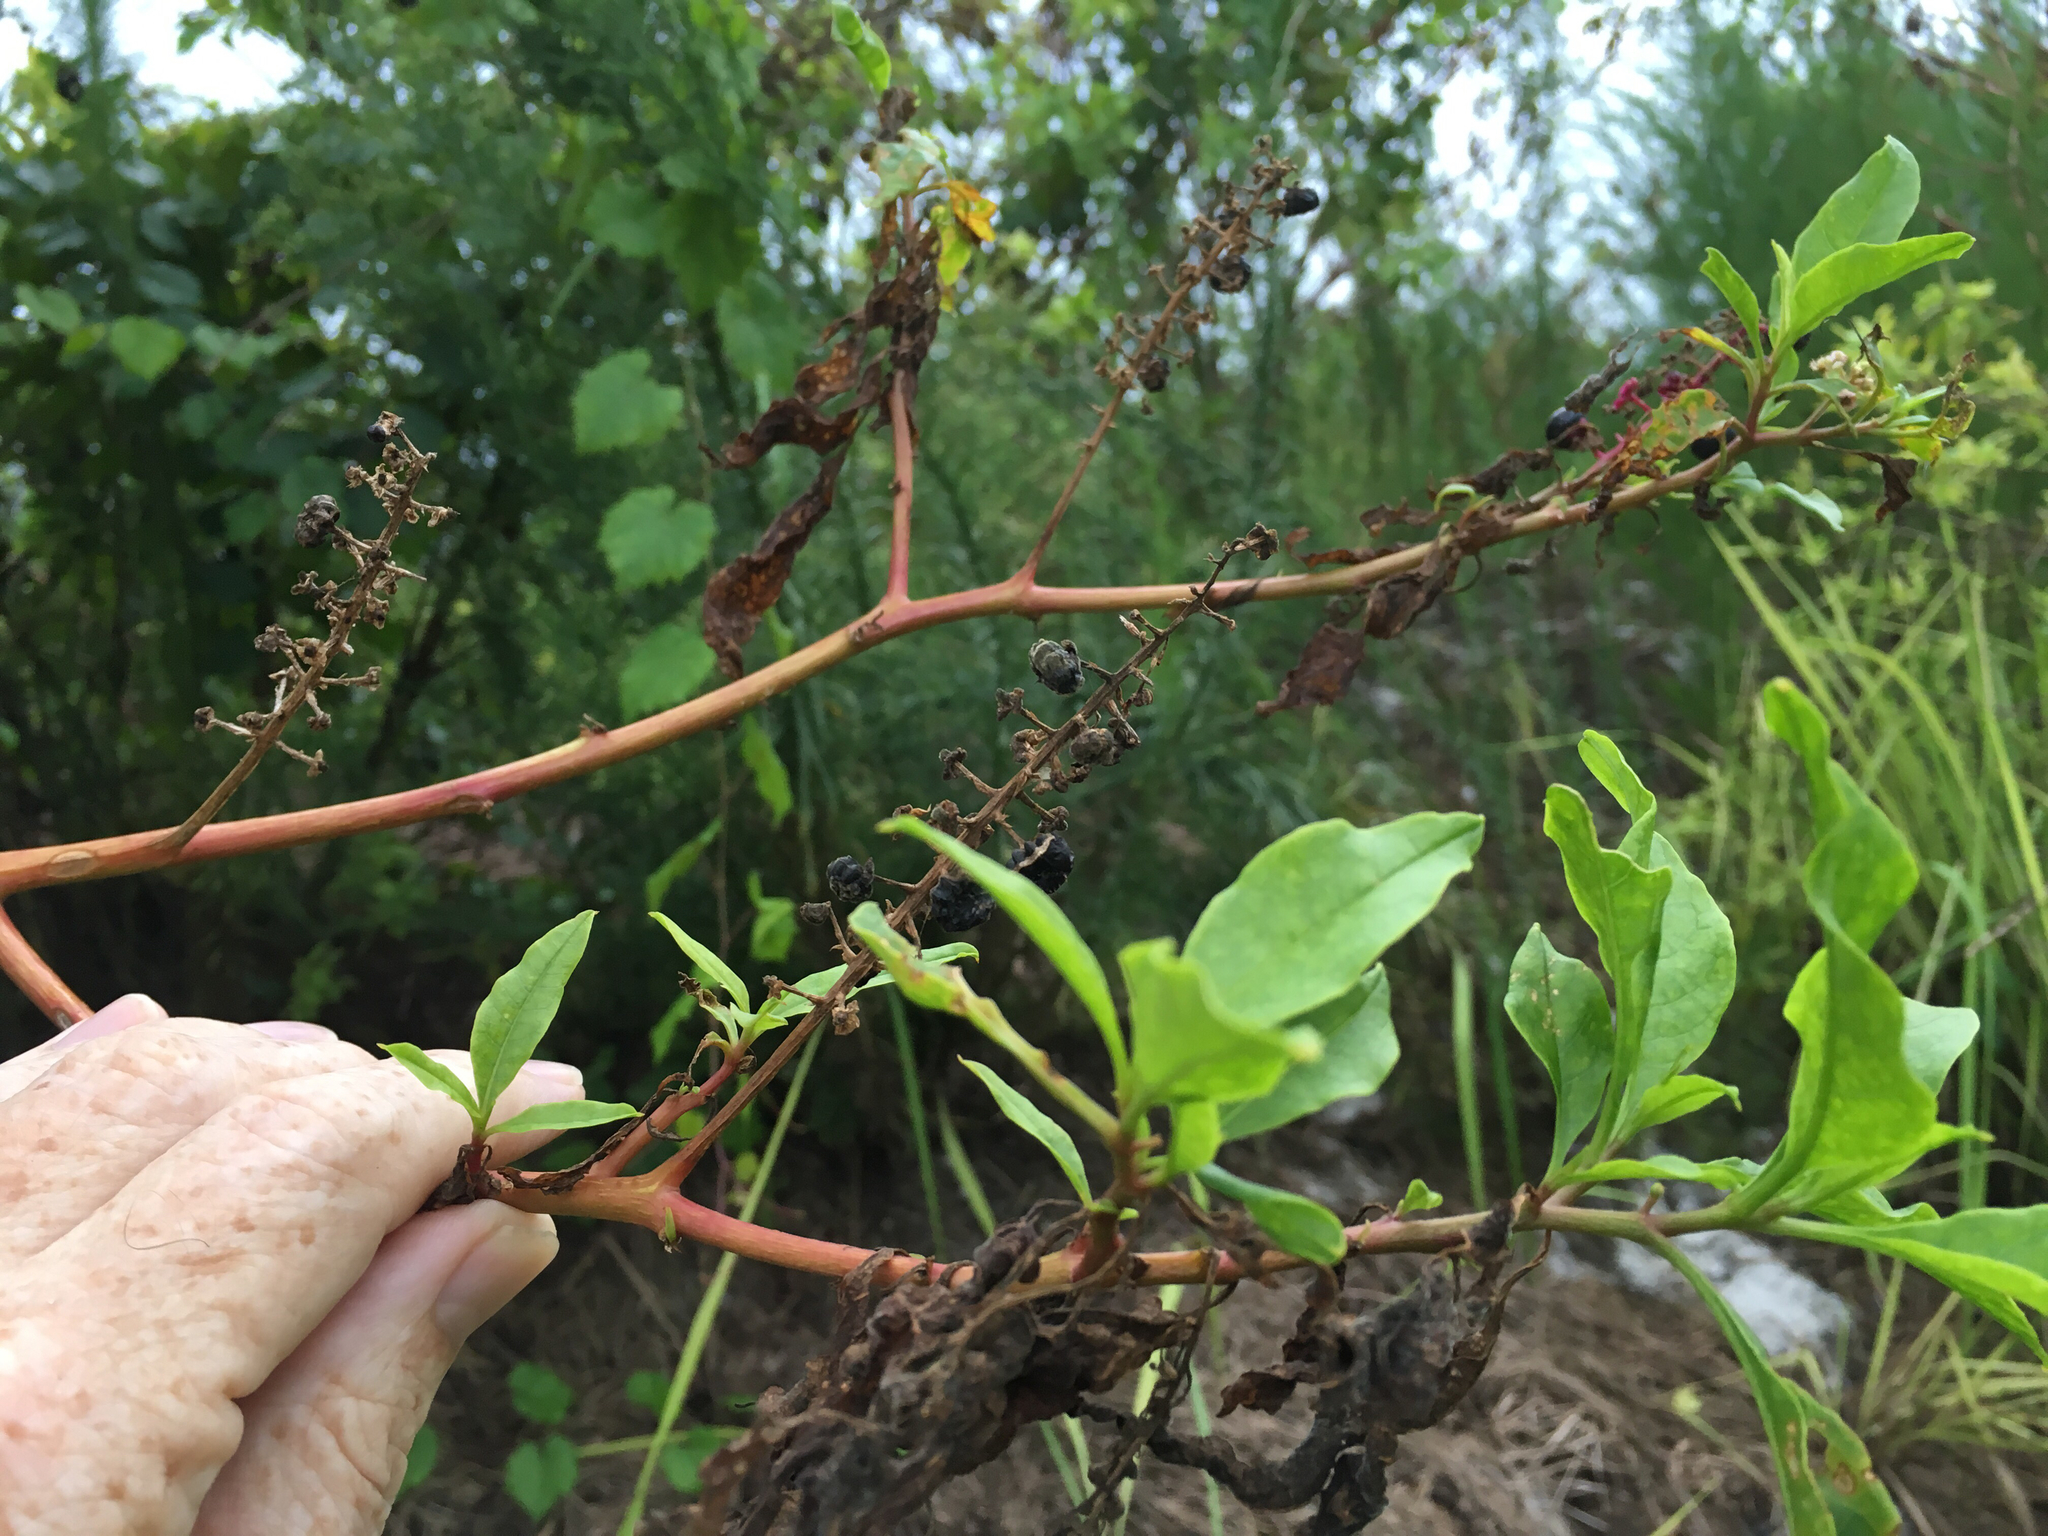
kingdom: Plantae
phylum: Tracheophyta
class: Magnoliopsida
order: Caryophyllales
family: Phytolaccaceae
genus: Phytolacca
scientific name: Phytolacca americana
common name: American pokeweed
